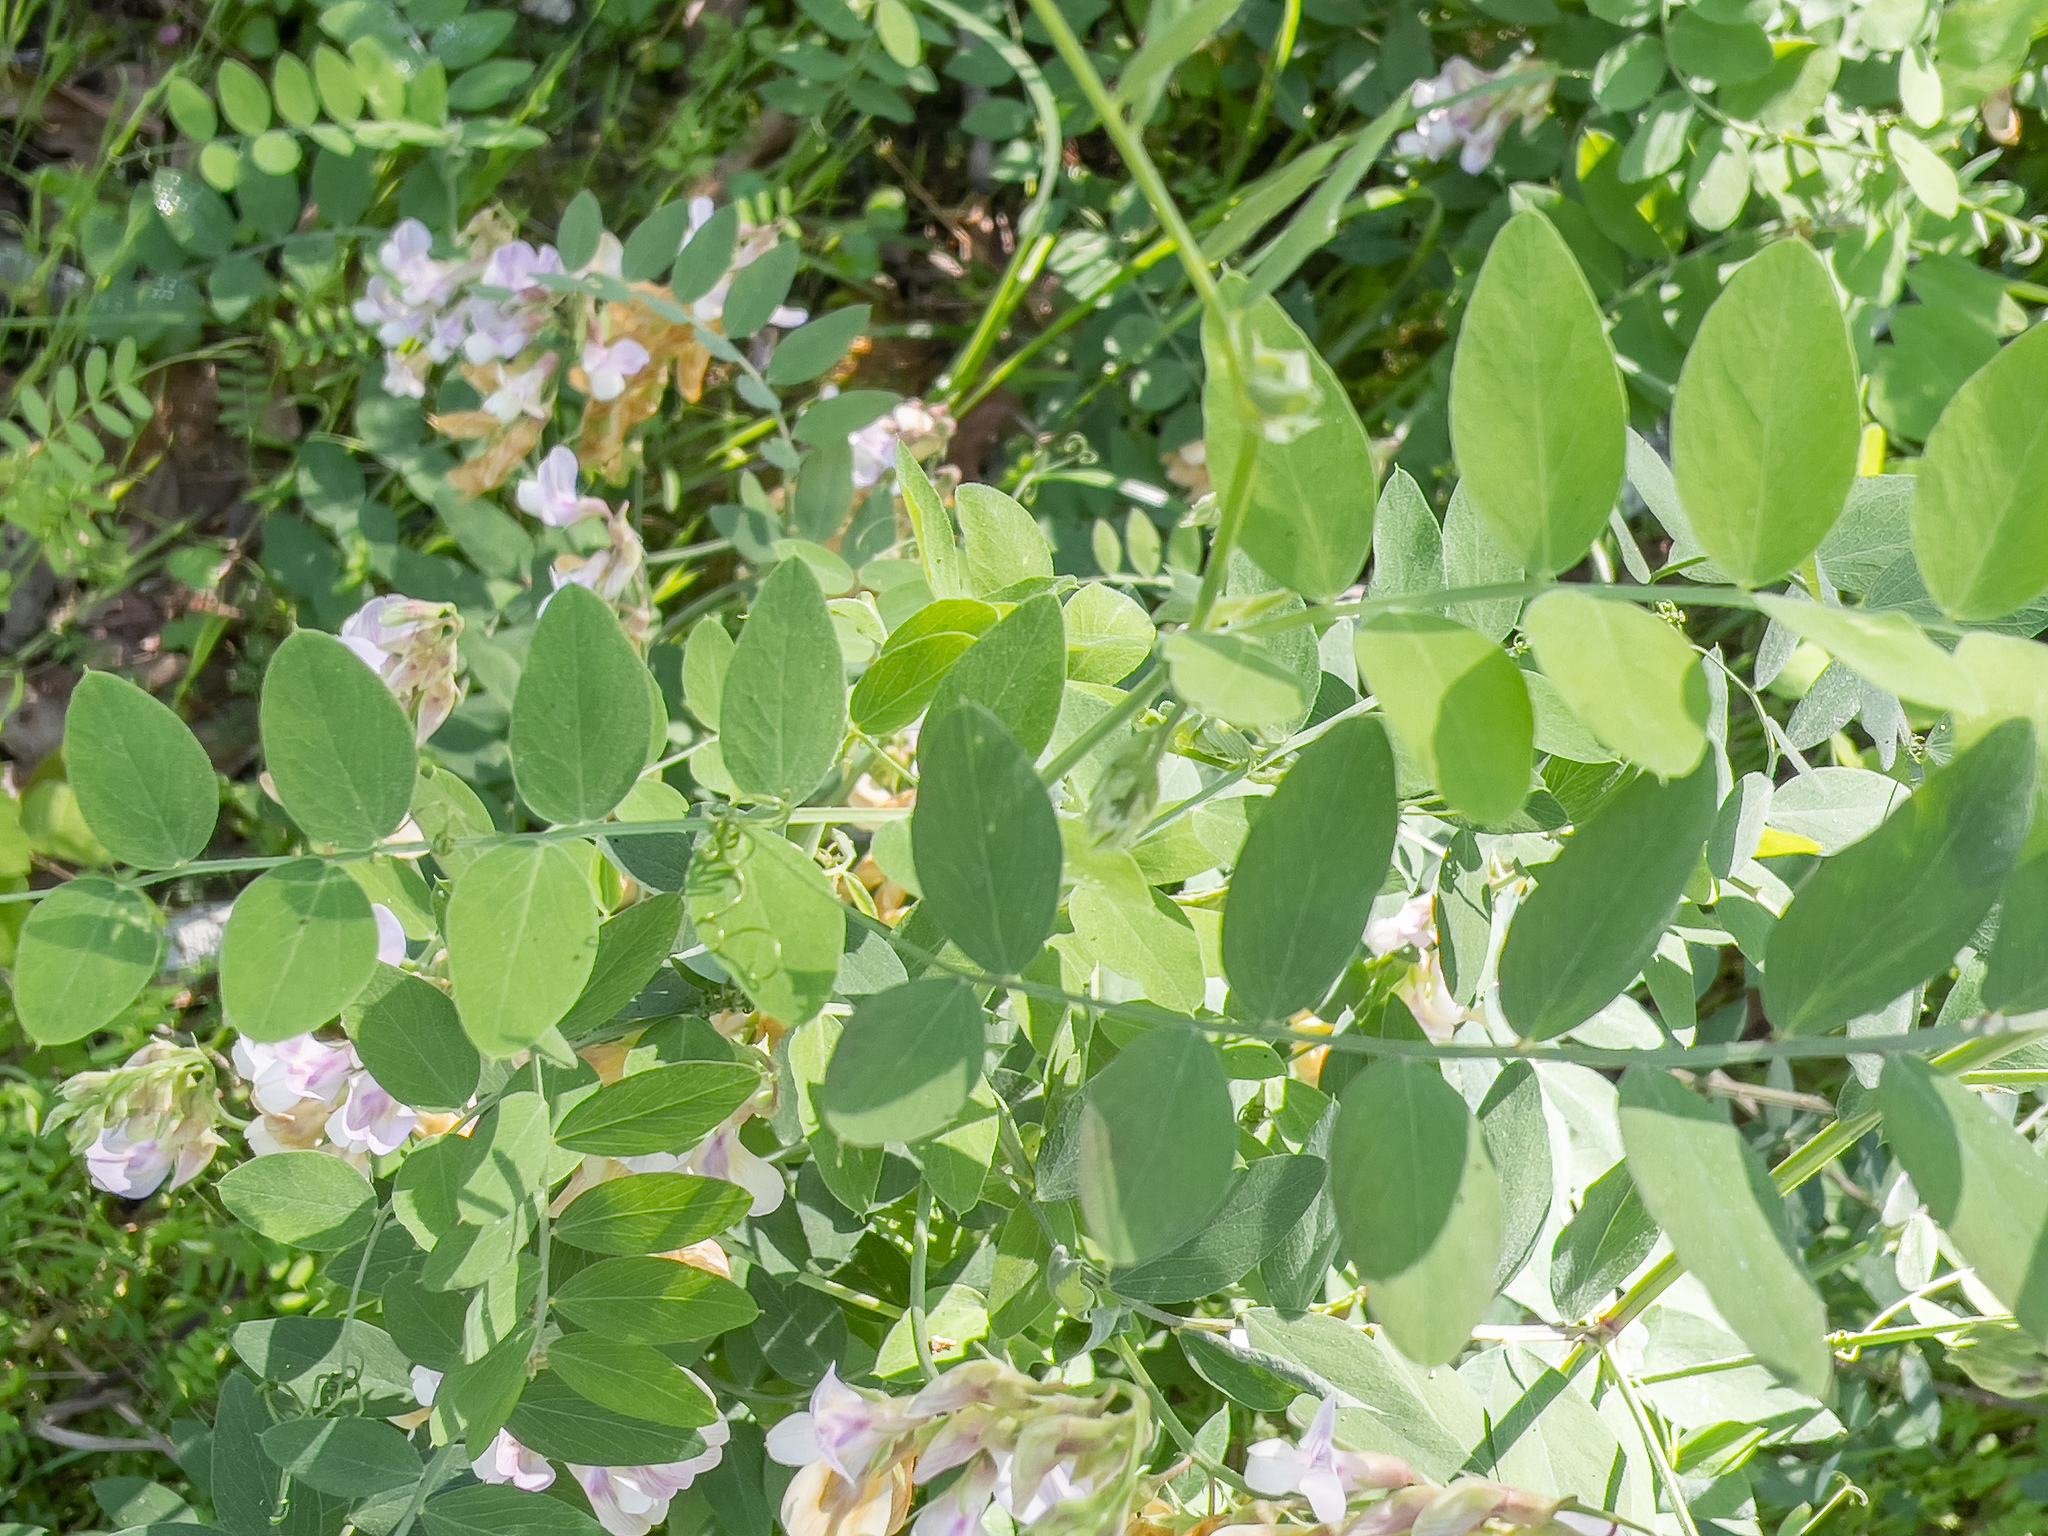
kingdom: Plantae
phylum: Tracheophyta
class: Magnoliopsida
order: Fabales
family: Fabaceae
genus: Lathyrus
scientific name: Lathyrus vestitus
